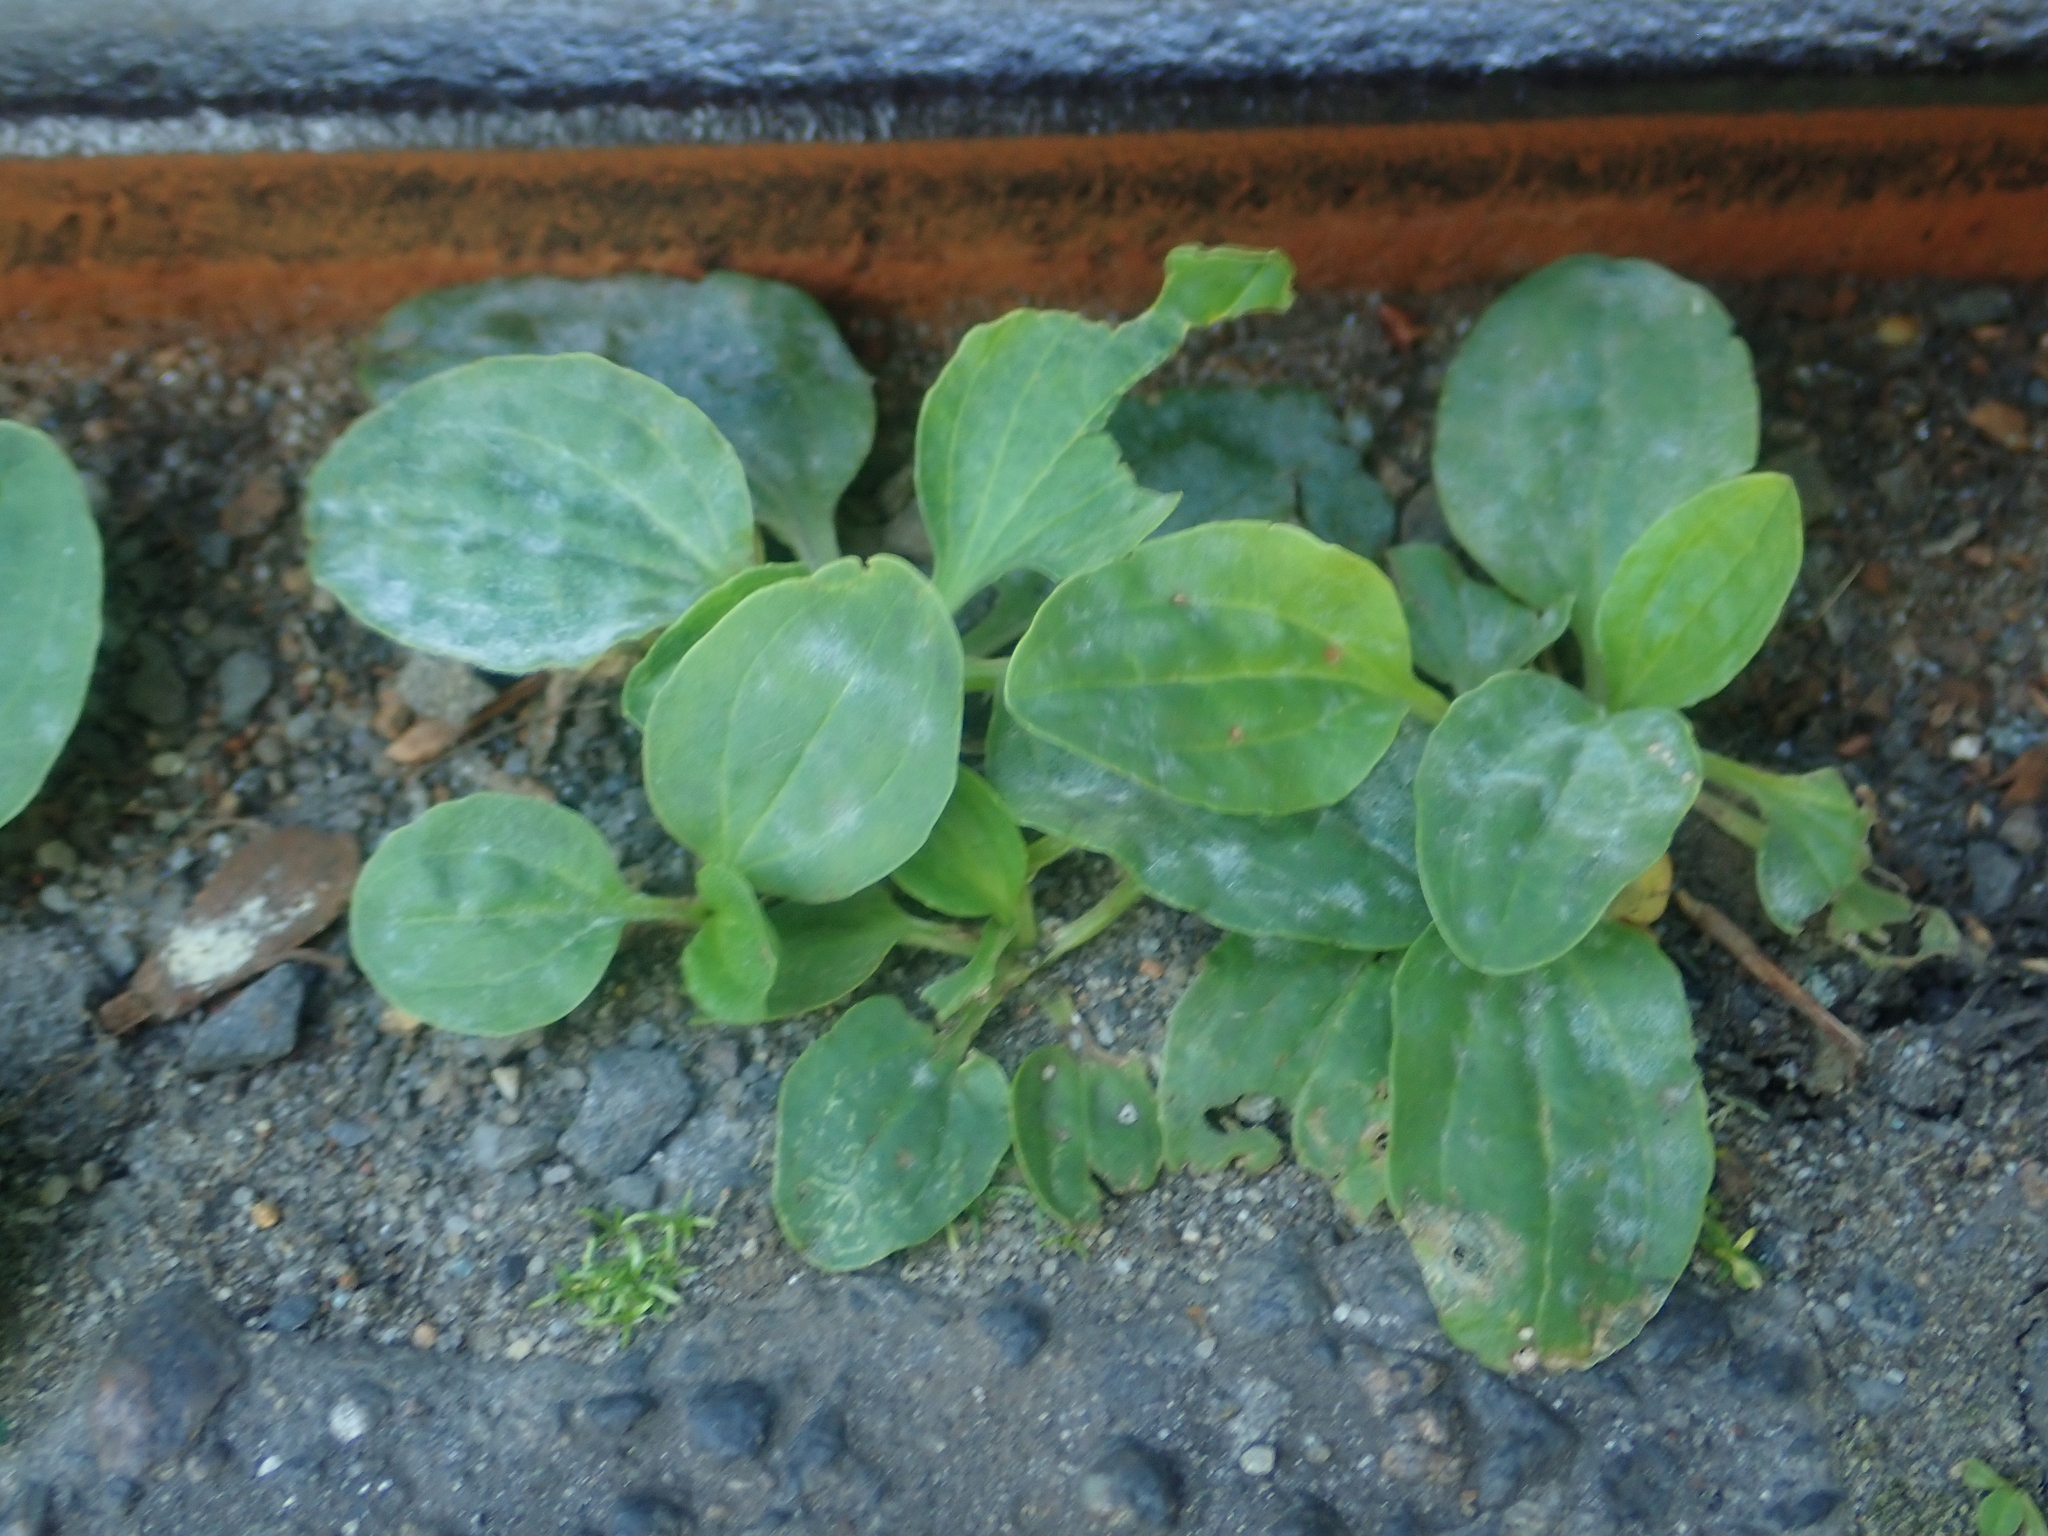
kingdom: Fungi
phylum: Ascomycota
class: Leotiomycetes
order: Helotiales
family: Erysiphaceae
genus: Golovinomyces
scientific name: Golovinomyces sordidus
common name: Plantain mildew
